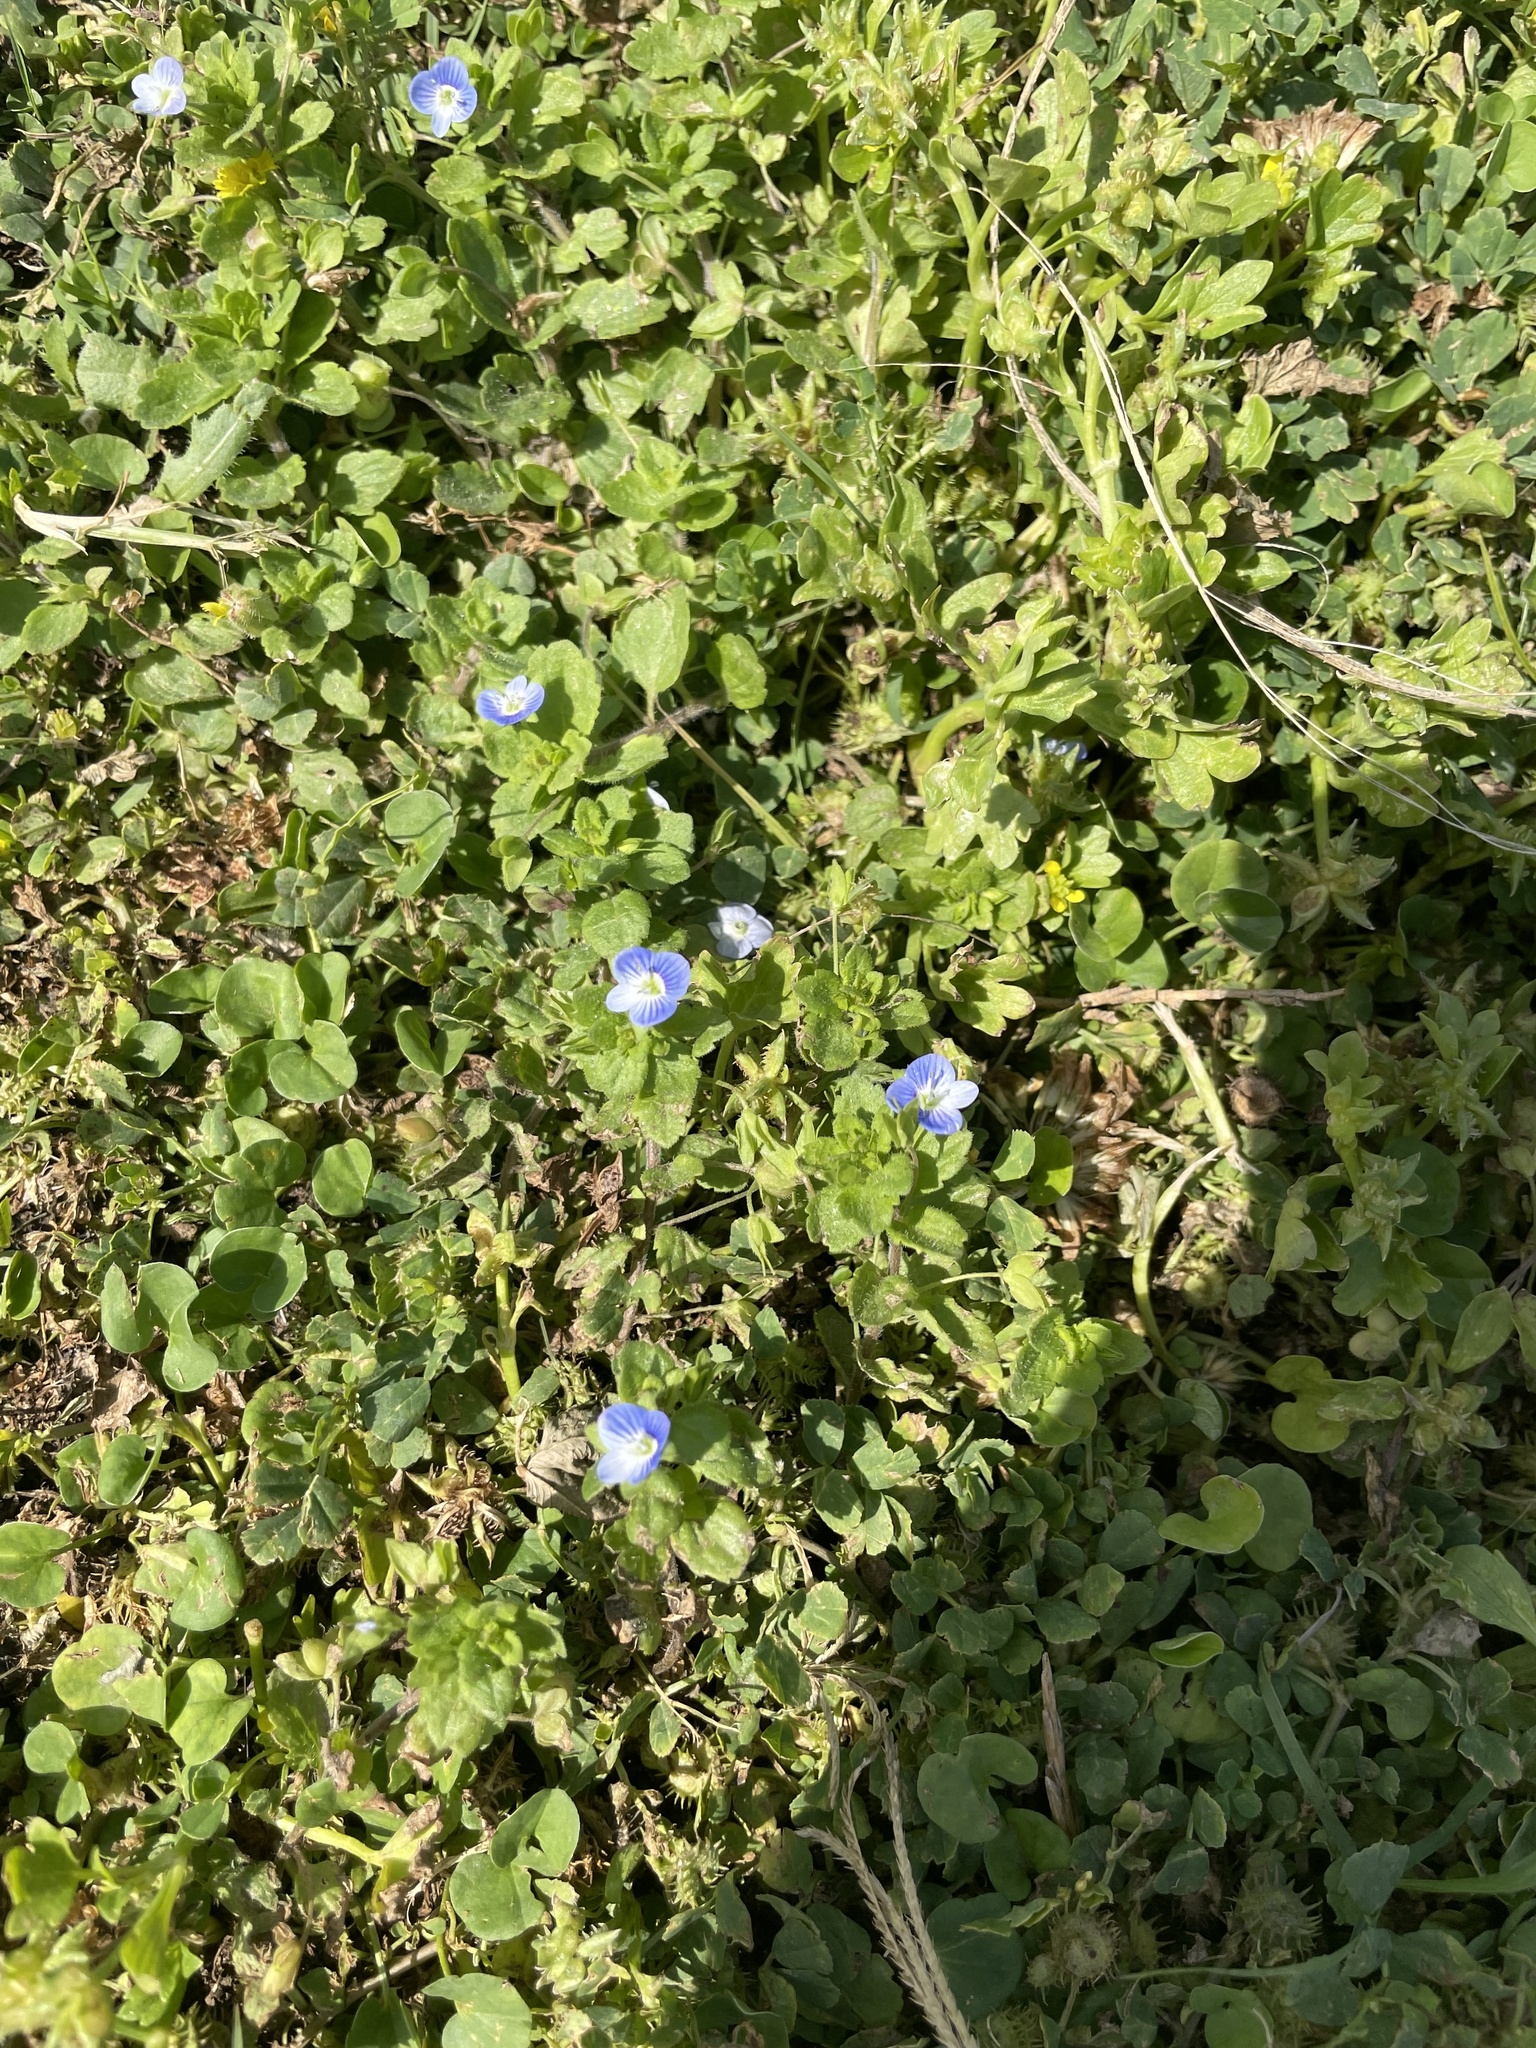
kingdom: Plantae
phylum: Tracheophyta
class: Magnoliopsida
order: Lamiales
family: Plantaginaceae
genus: Veronica
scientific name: Veronica persica
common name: Common field-speedwell
